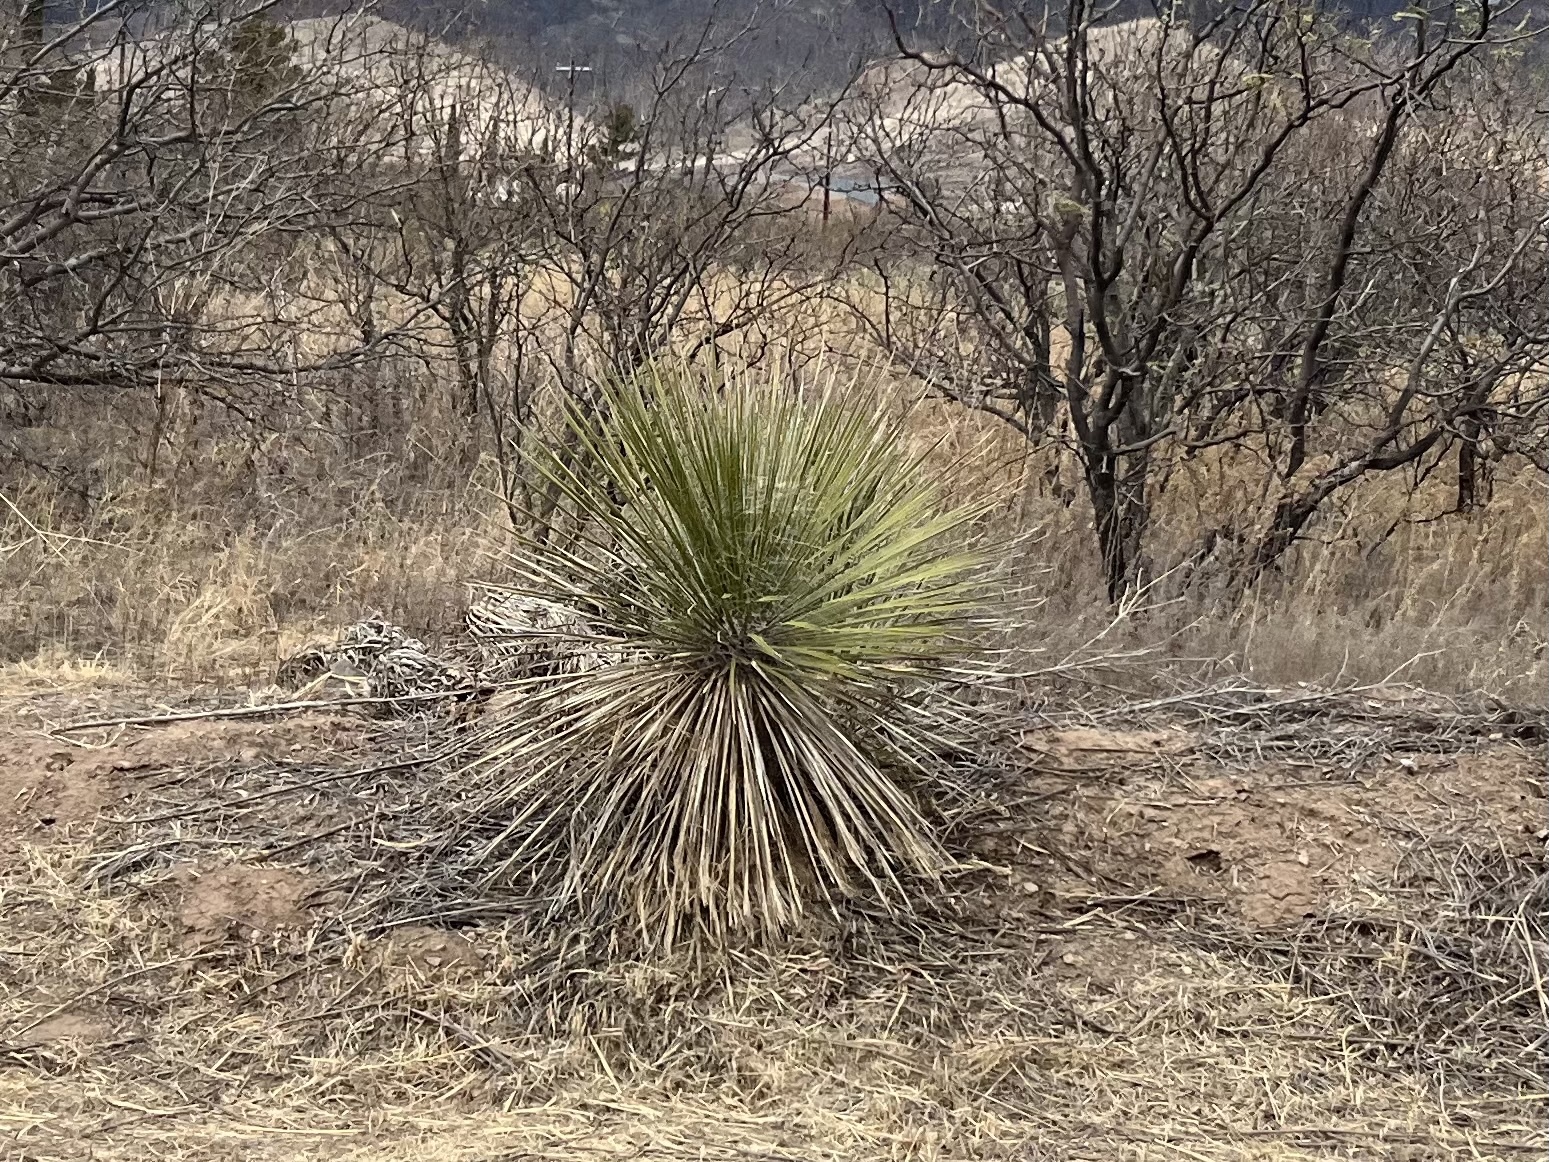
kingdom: Plantae
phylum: Tracheophyta
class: Liliopsida
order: Asparagales
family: Asparagaceae
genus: Yucca
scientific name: Yucca elata
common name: Palmella
